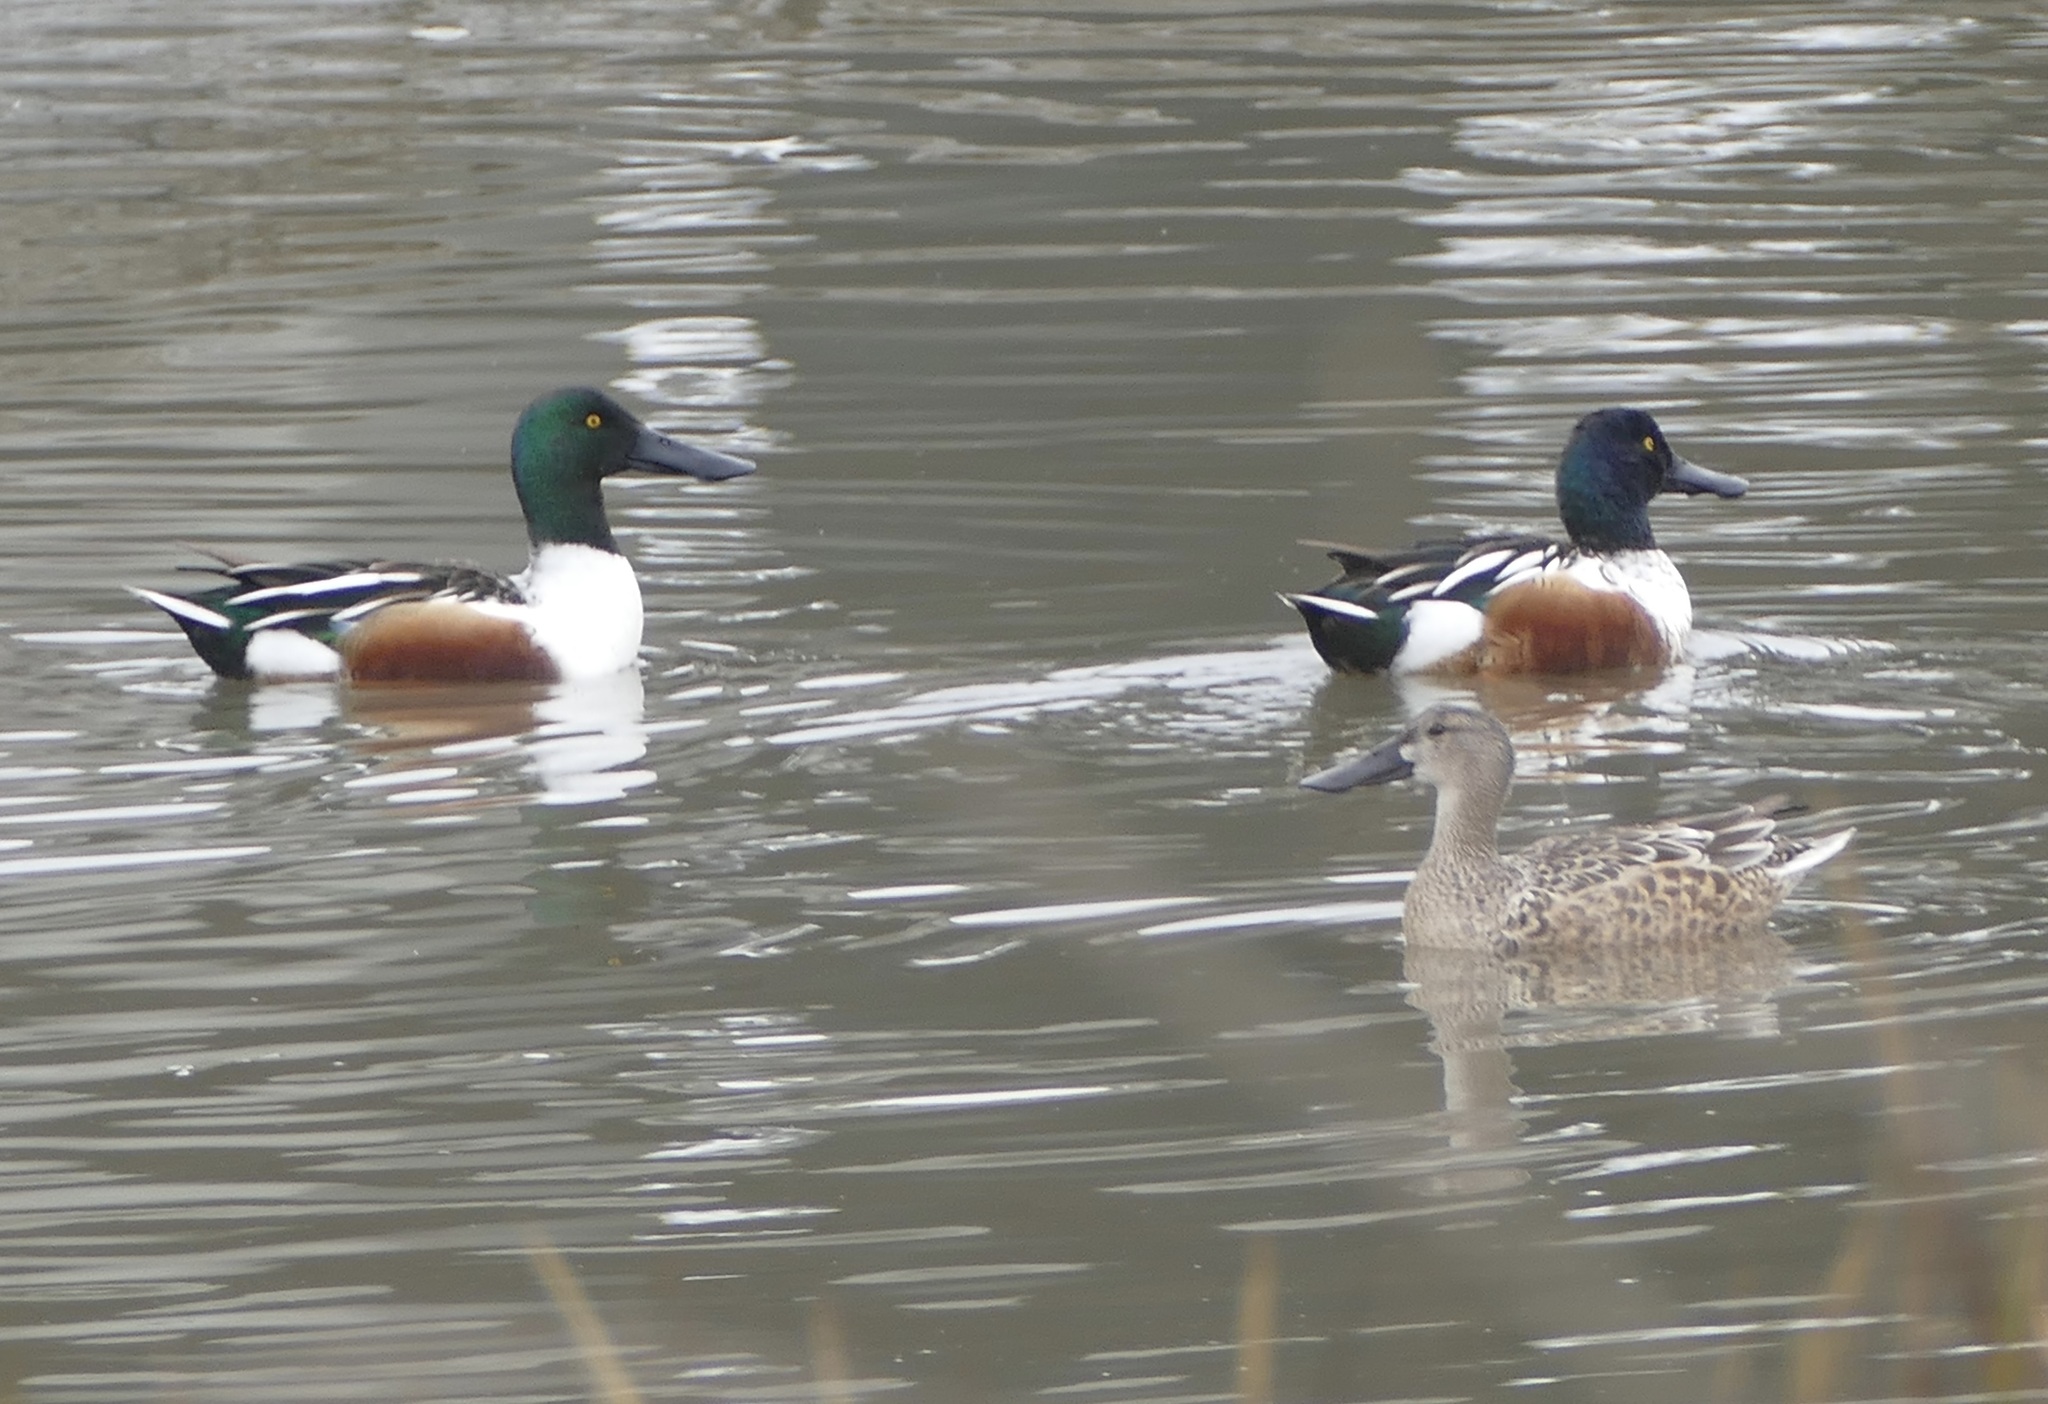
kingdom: Animalia
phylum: Chordata
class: Aves
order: Anseriformes
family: Anatidae
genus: Spatula
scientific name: Spatula clypeata
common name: Northern shoveler
